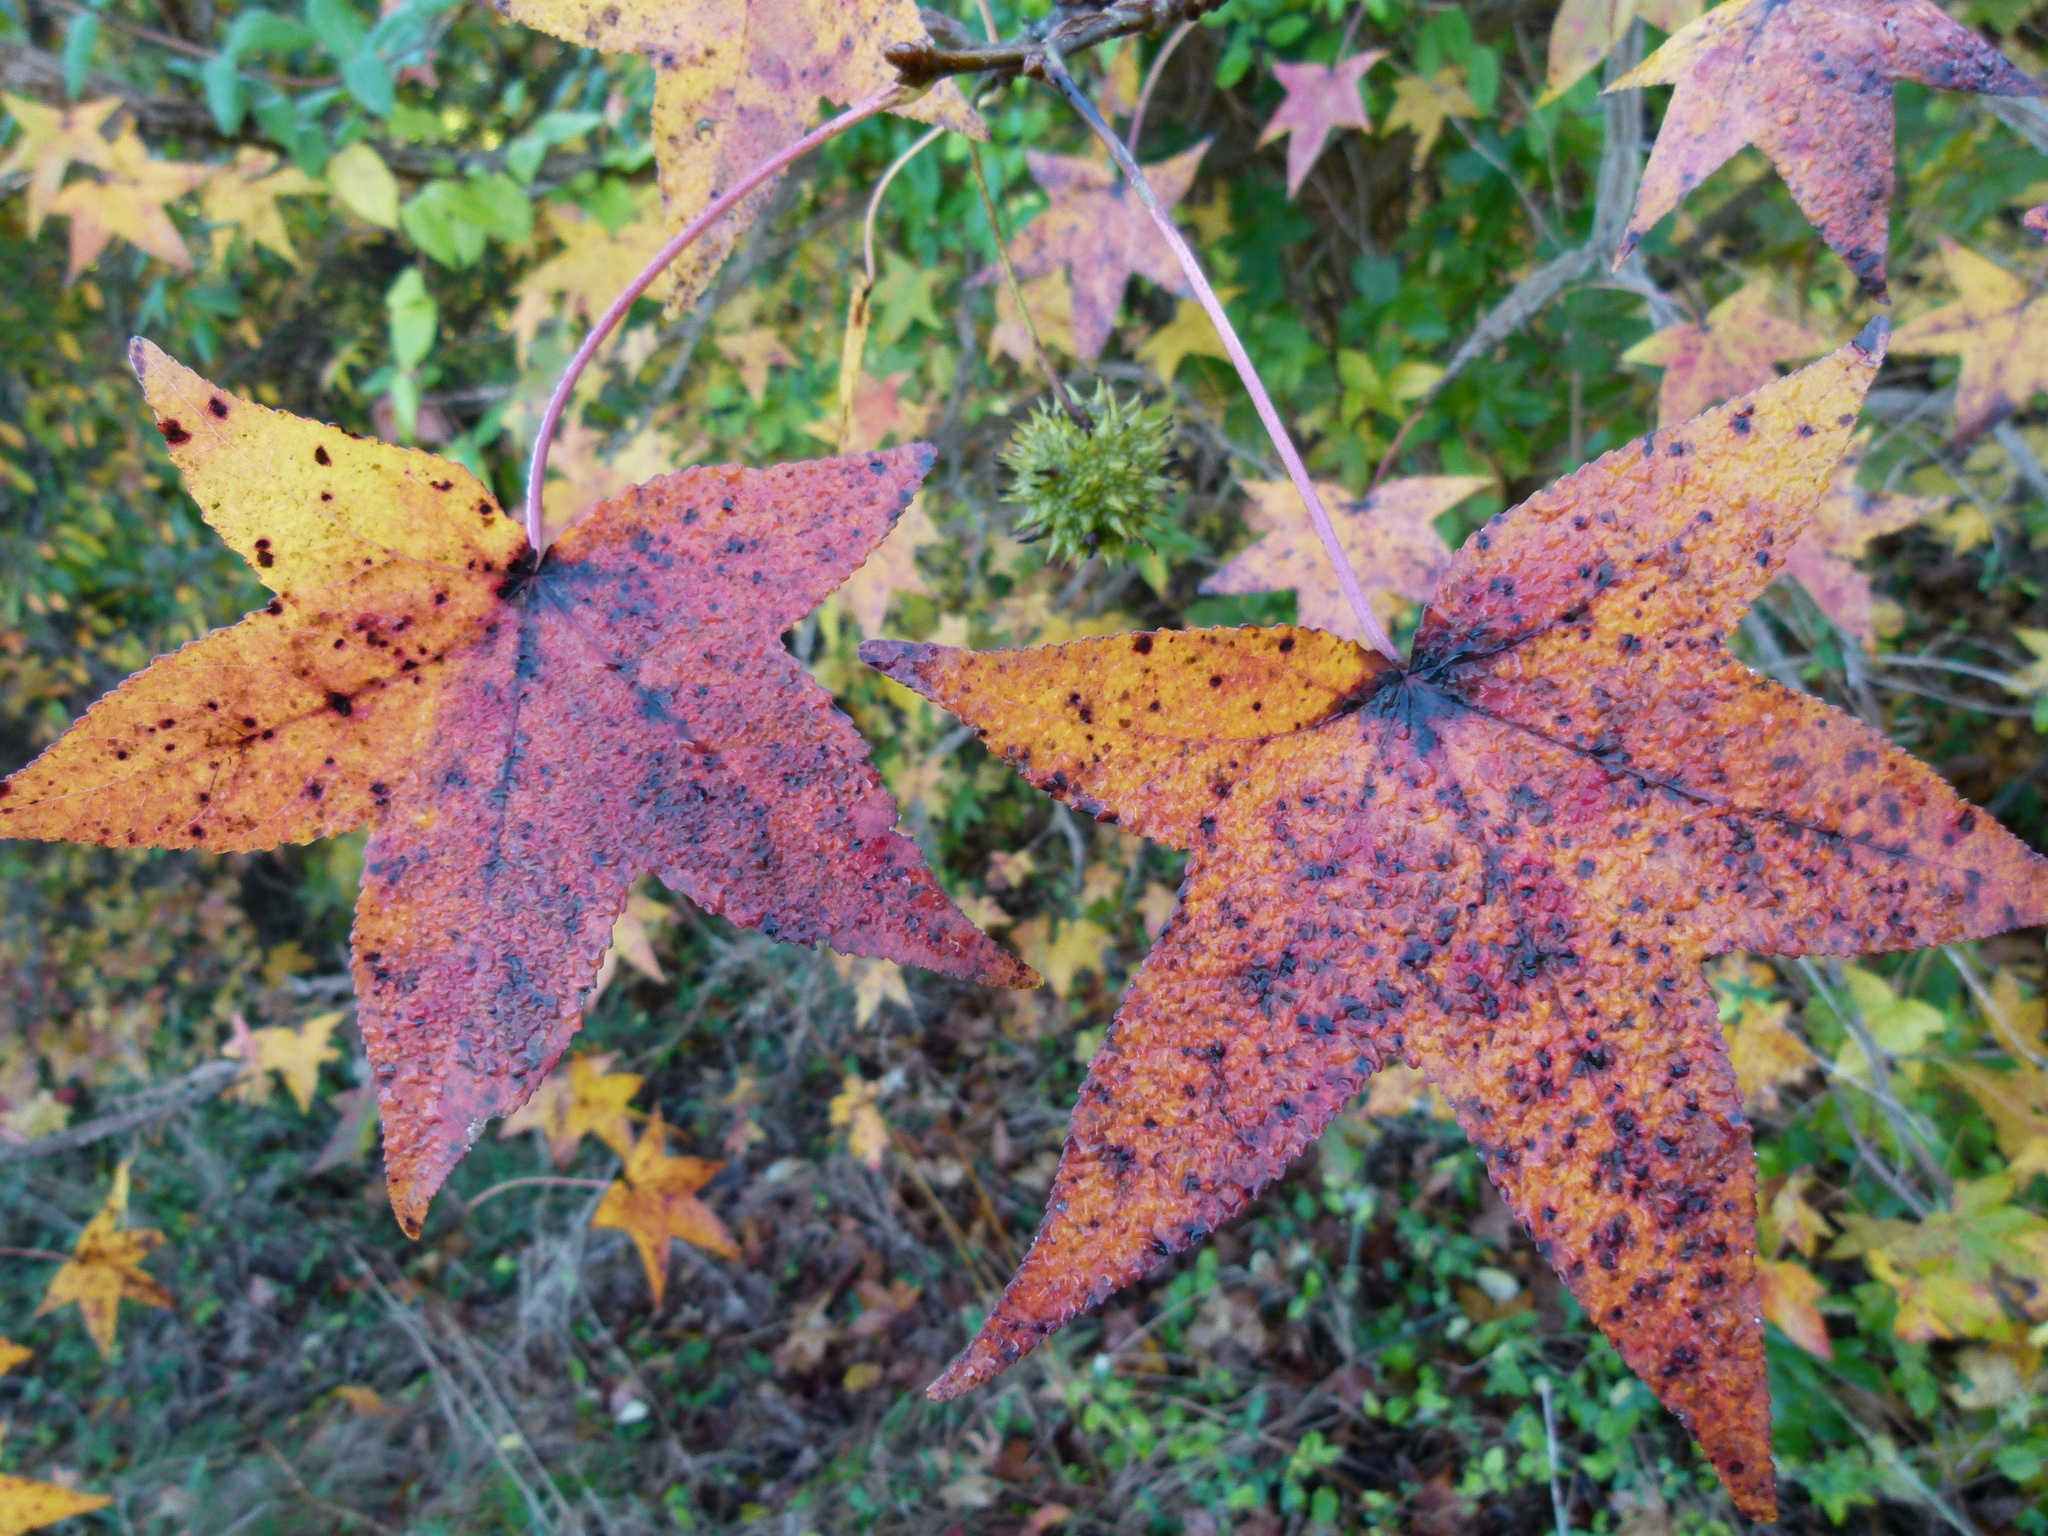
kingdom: Plantae
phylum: Tracheophyta
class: Magnoliopsida
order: Saxifragales
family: Altingiaceae
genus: Liquidambar
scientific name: Liquidambar styraciflua
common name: Sweet gum
